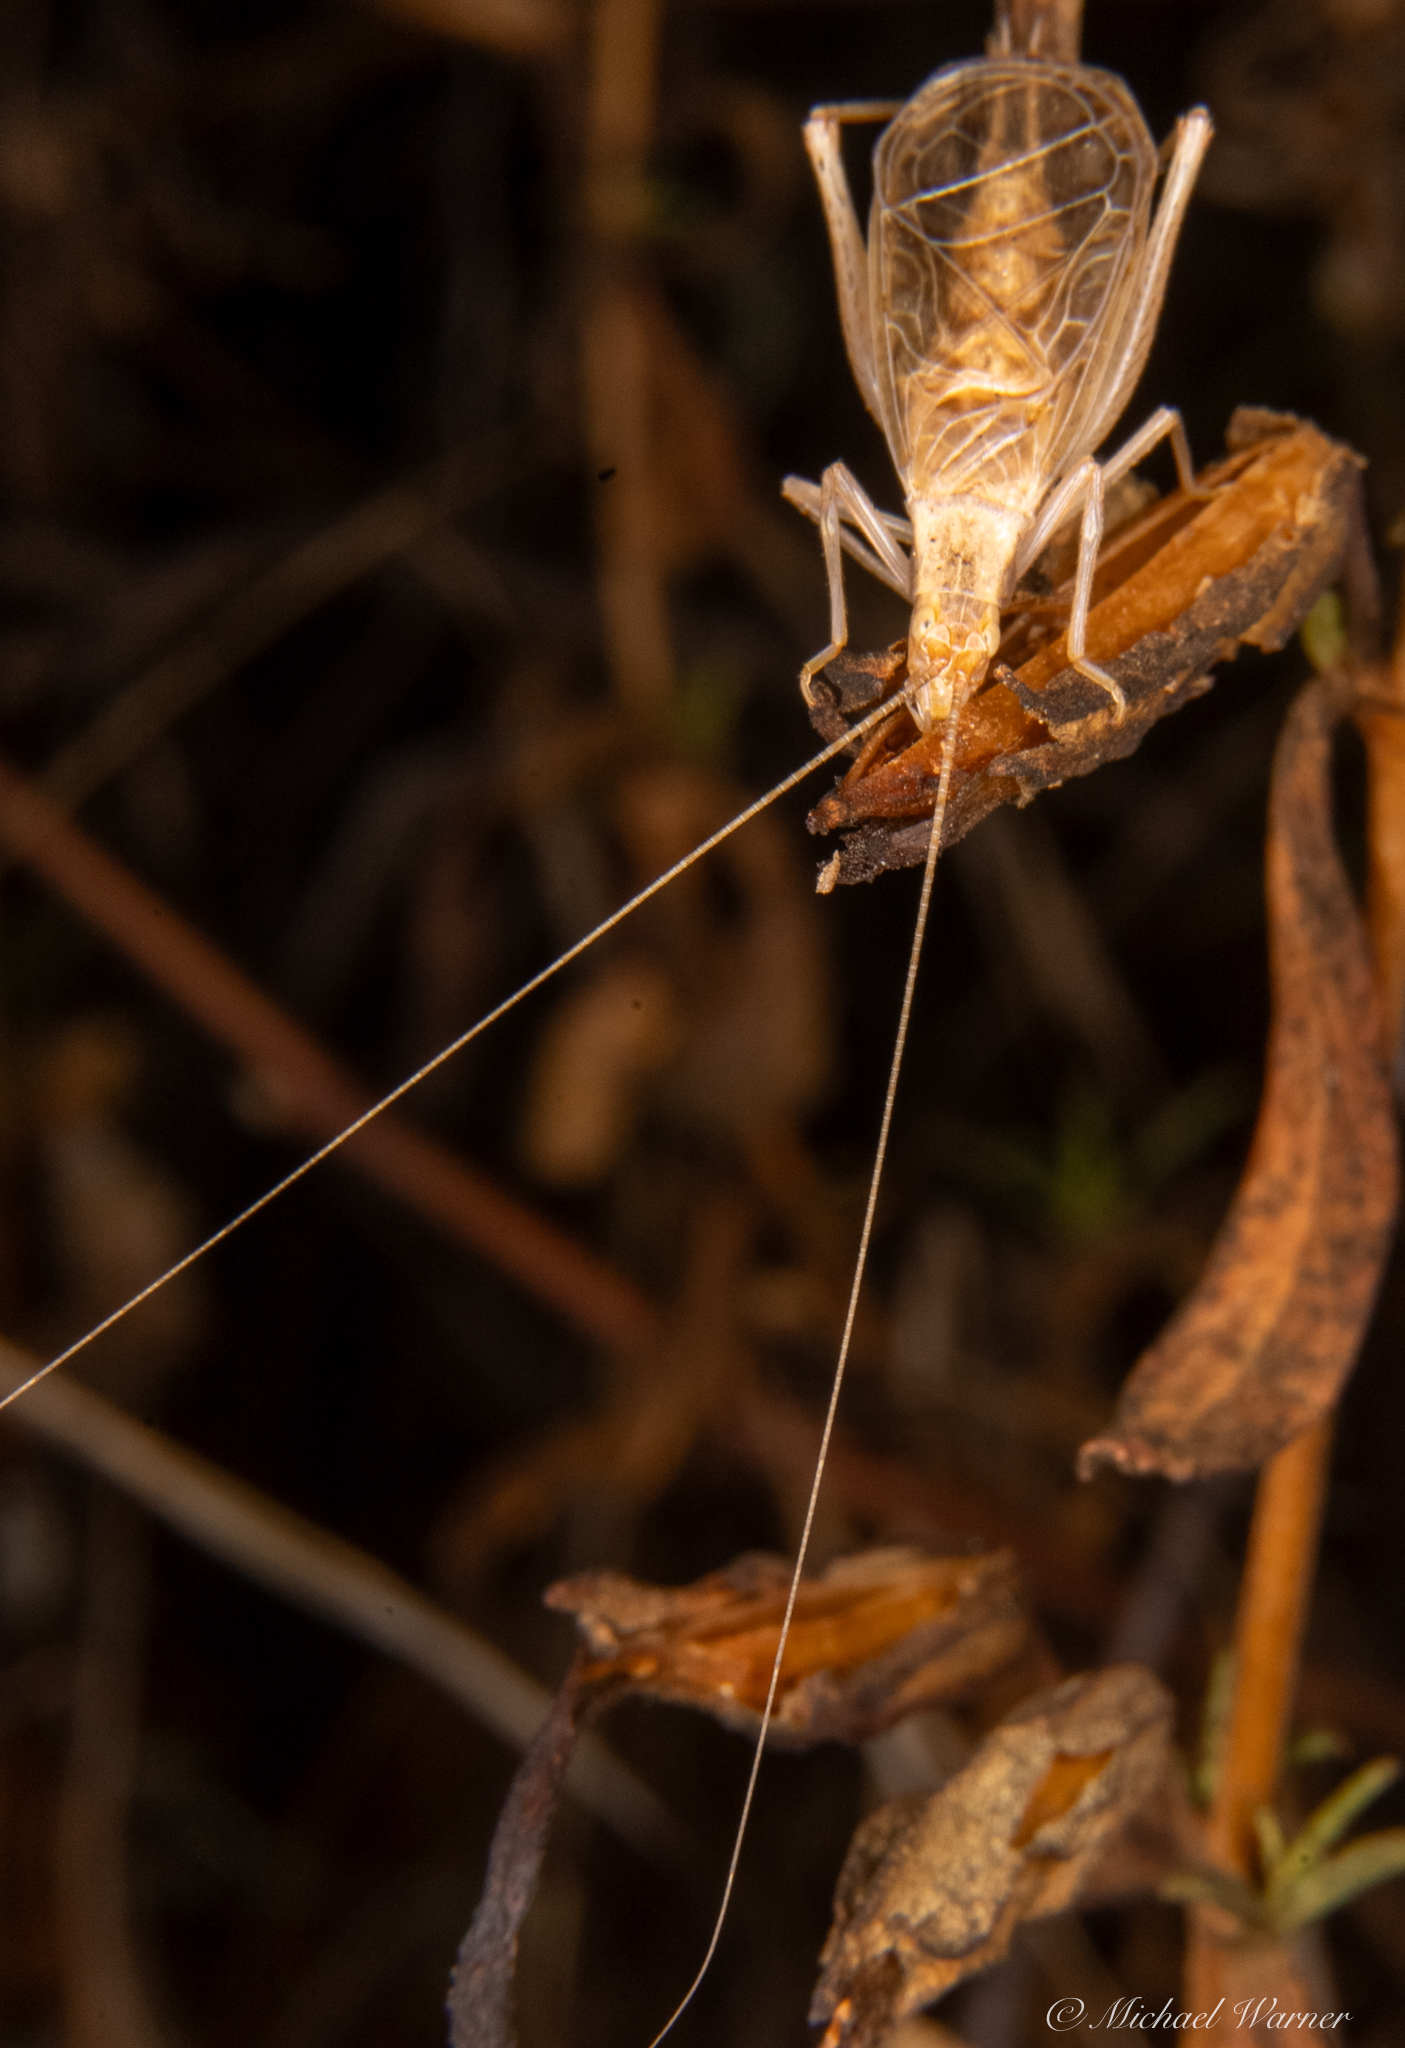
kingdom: Animalia
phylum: Arthropoda
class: Insecta
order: Orthoptera
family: Gryllidae
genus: Oecanthus
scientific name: Oecanthus californicus
